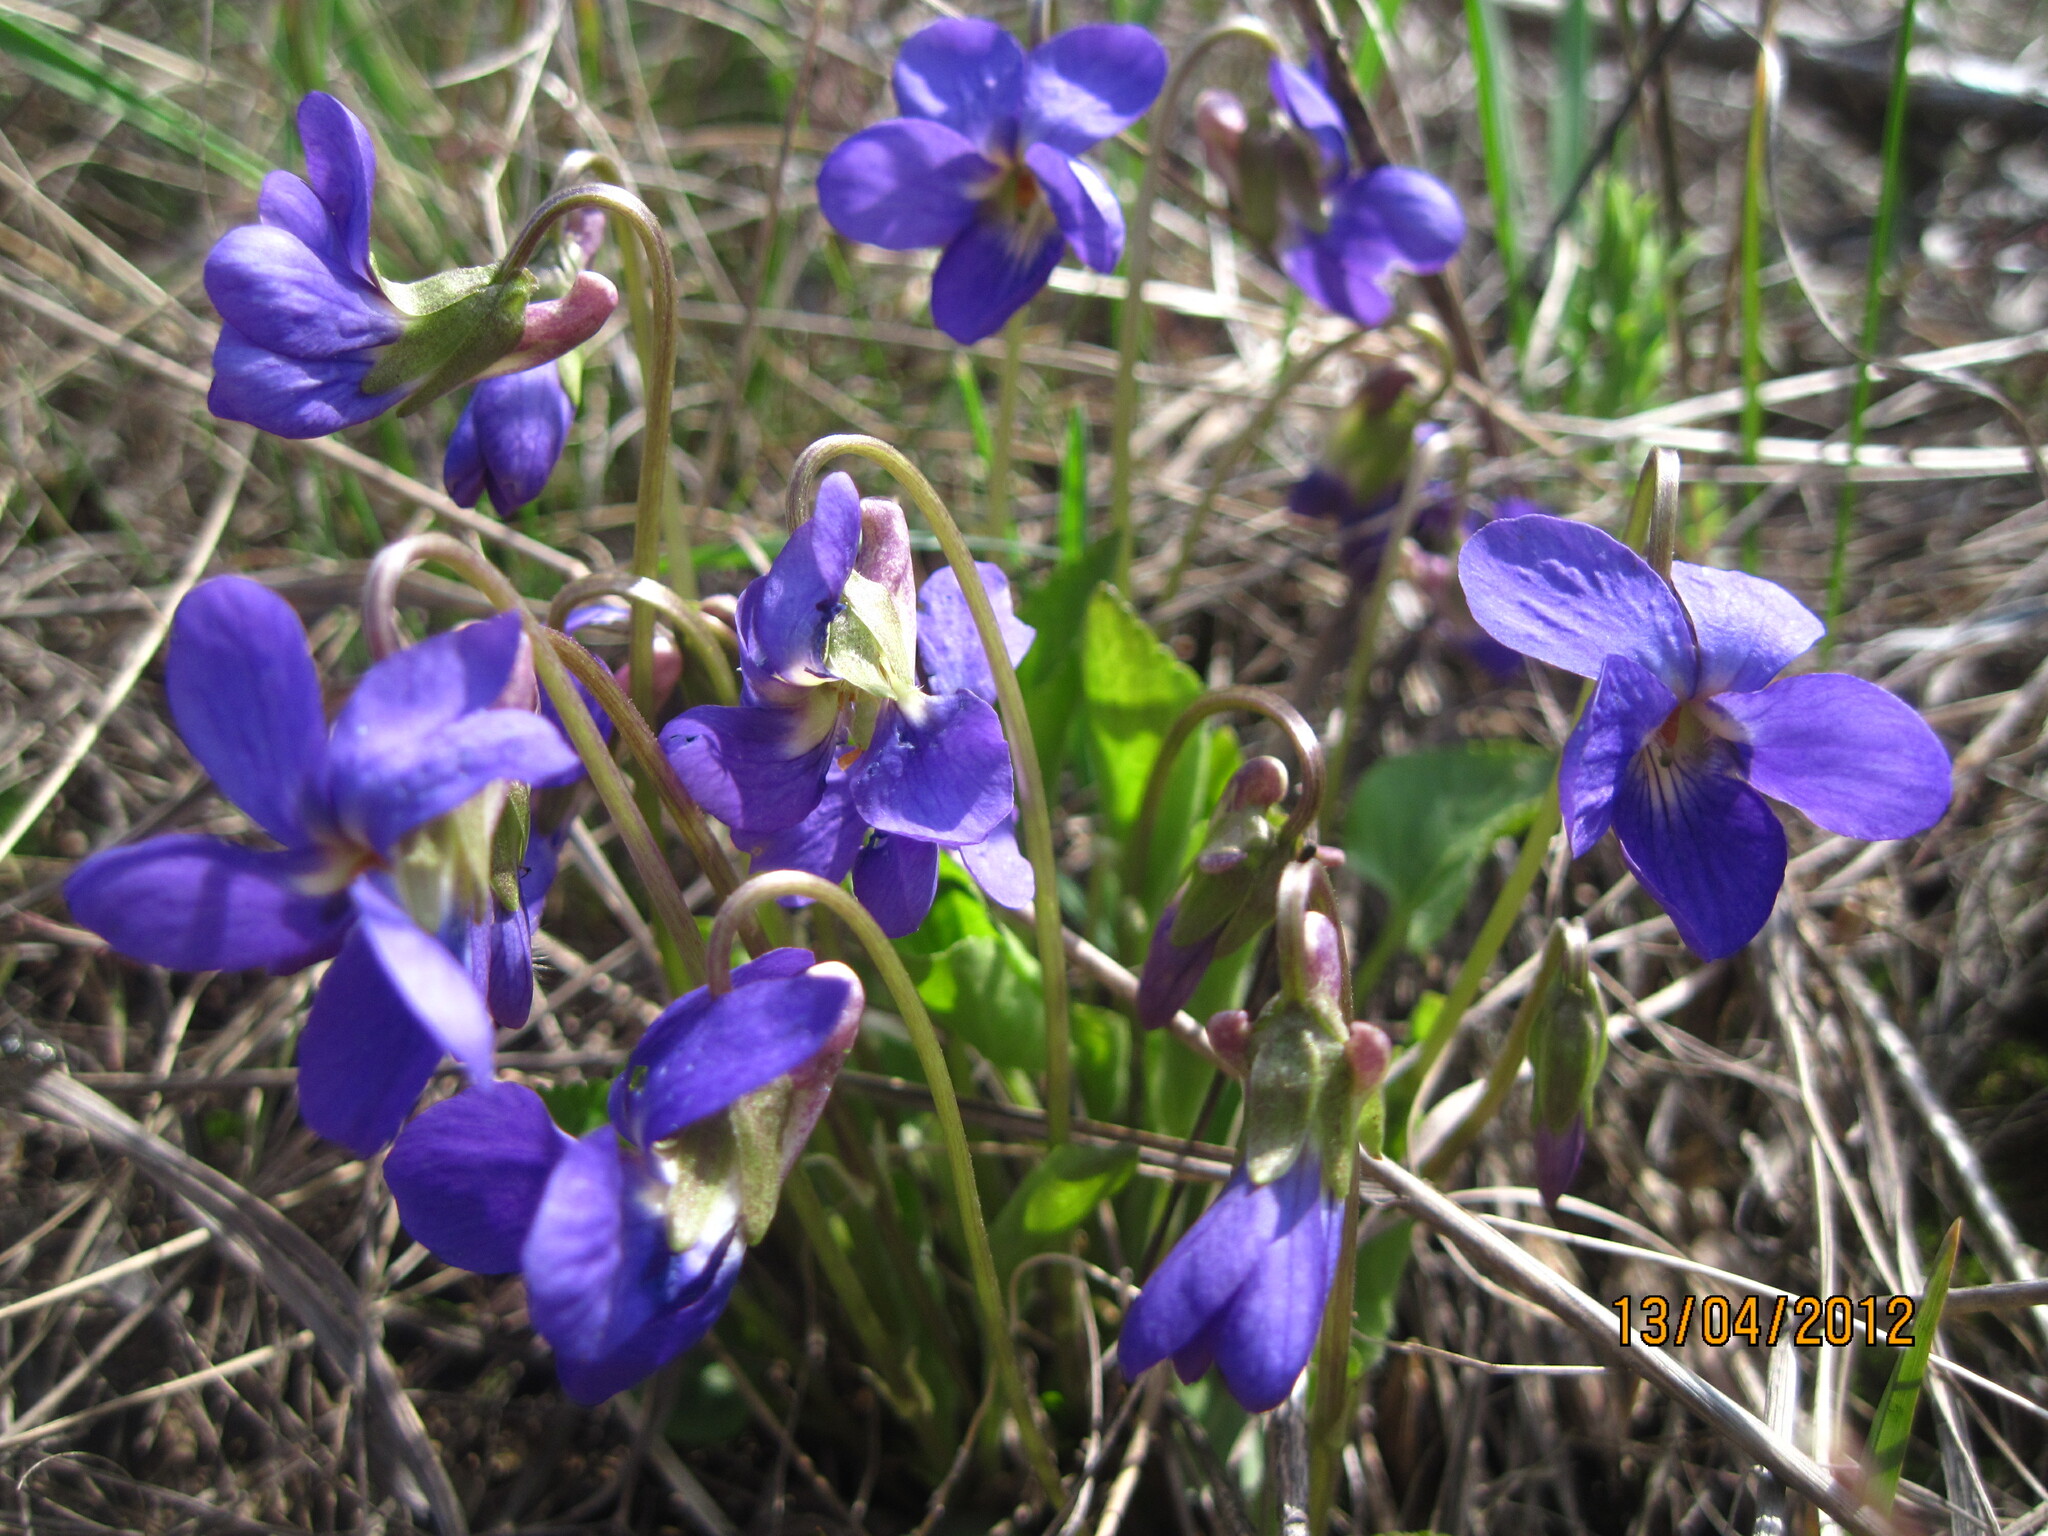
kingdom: Plantae
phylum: Tracheophyta
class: Magnoliopsida
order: Malpighiales
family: Violaceae
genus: Viola
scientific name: Viola ambigua
